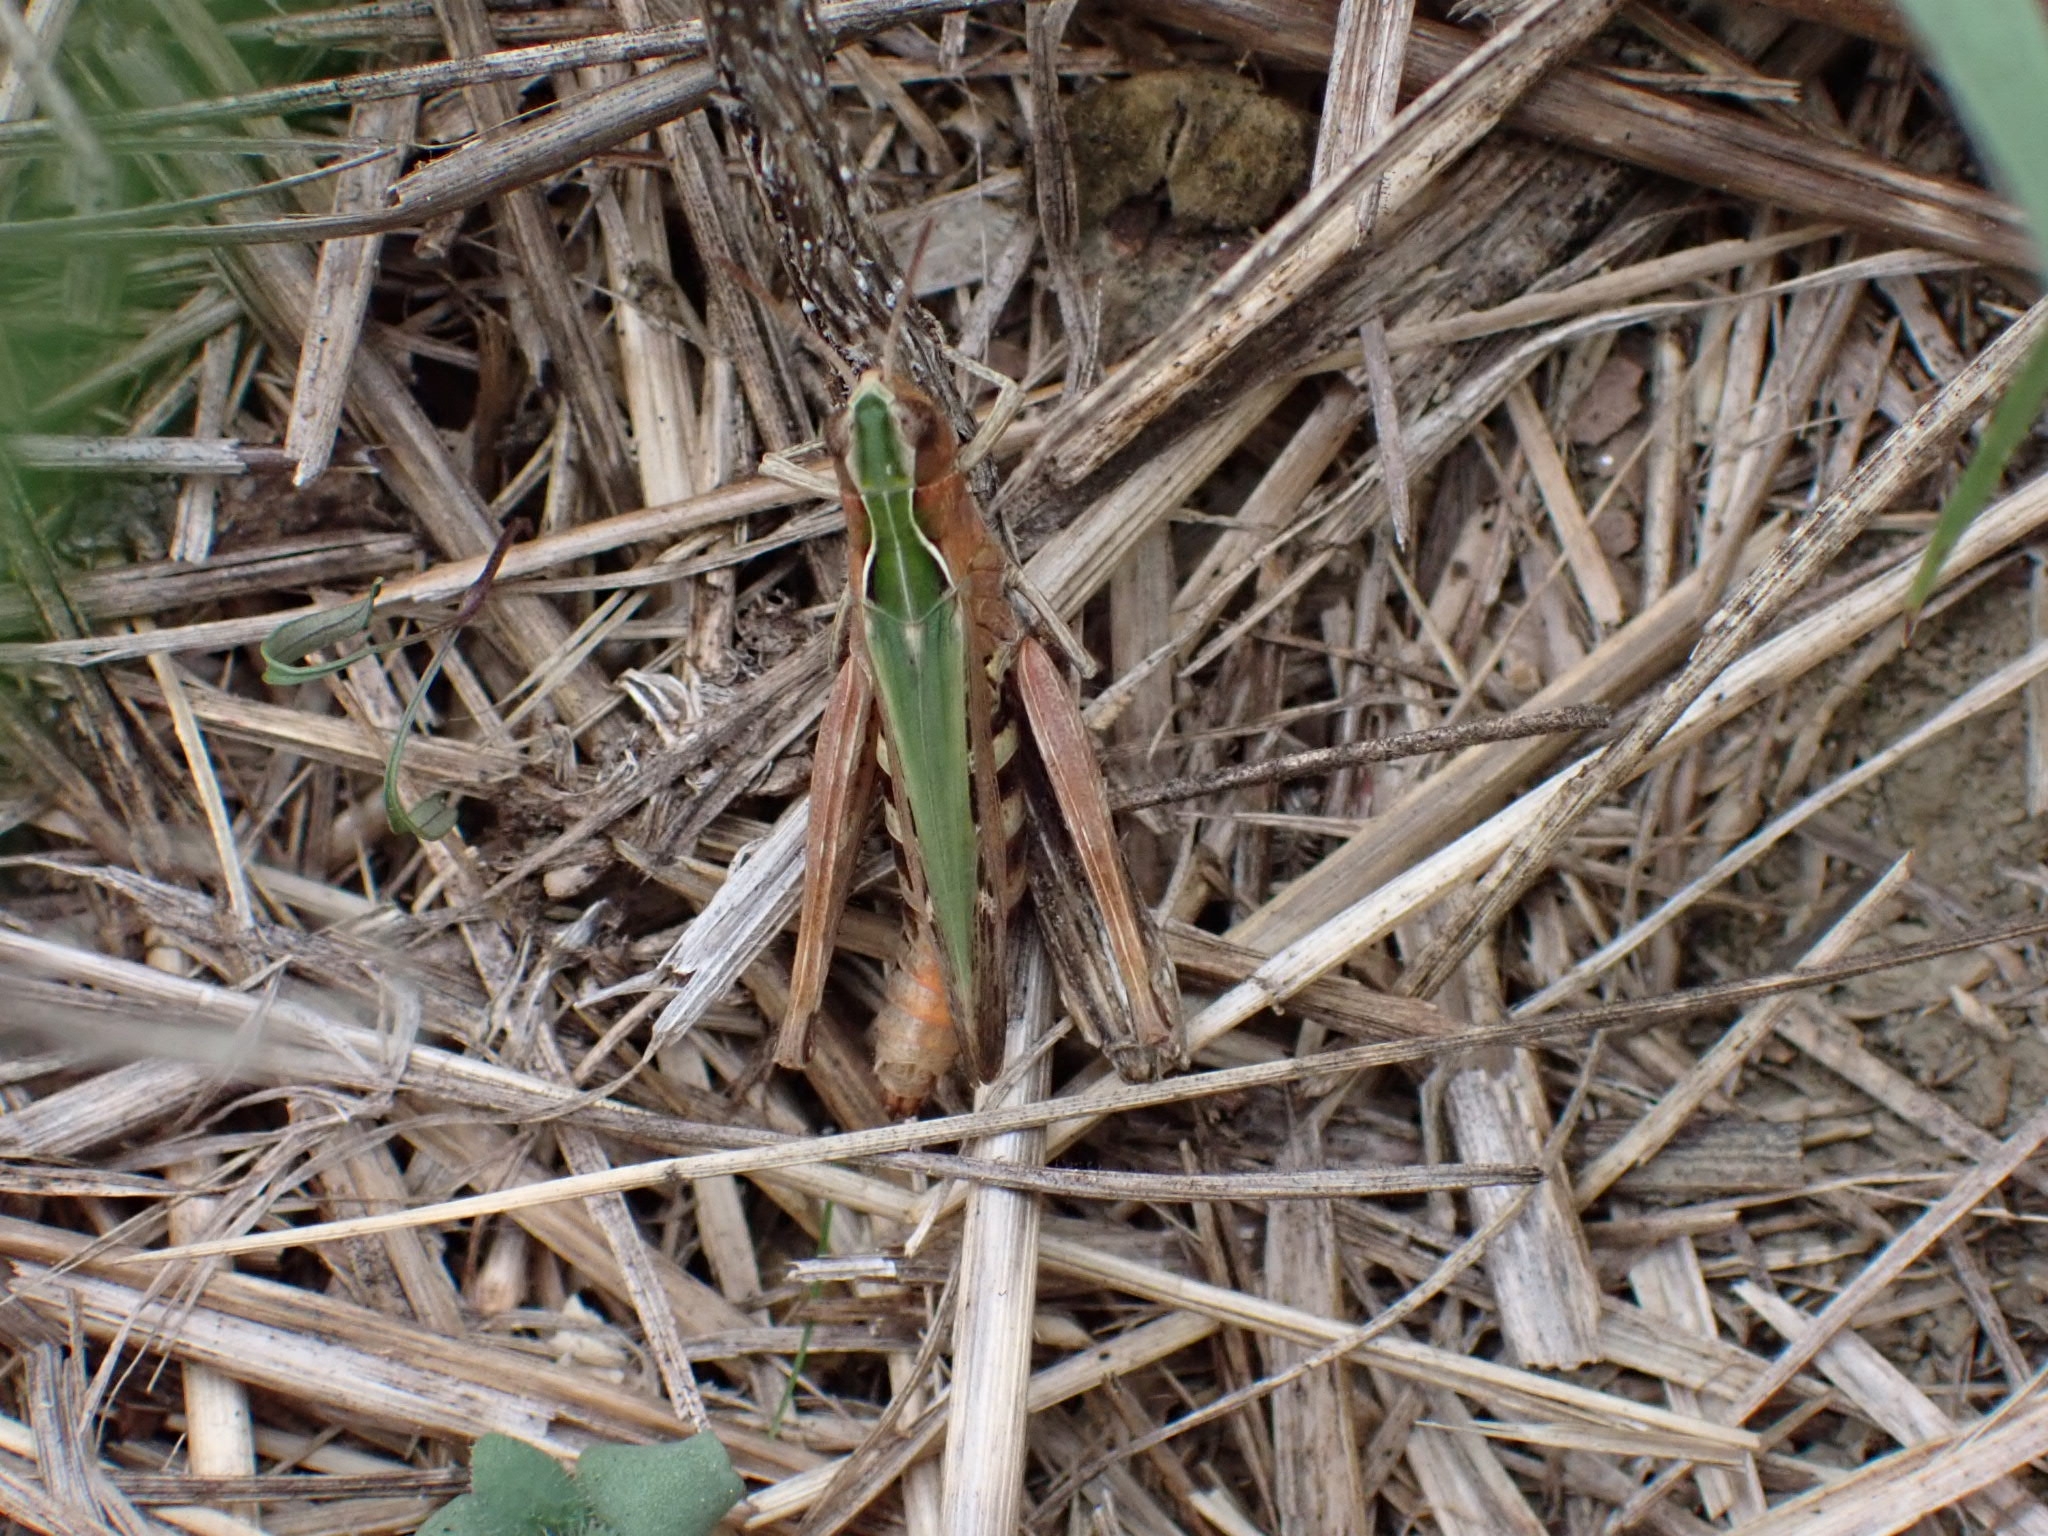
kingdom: Animalia
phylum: Arthropoda
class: Insecta
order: Orthoptera
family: Acrididae
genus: Omocestus
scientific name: Omocestus rufipes
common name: Woodland grasshopper
